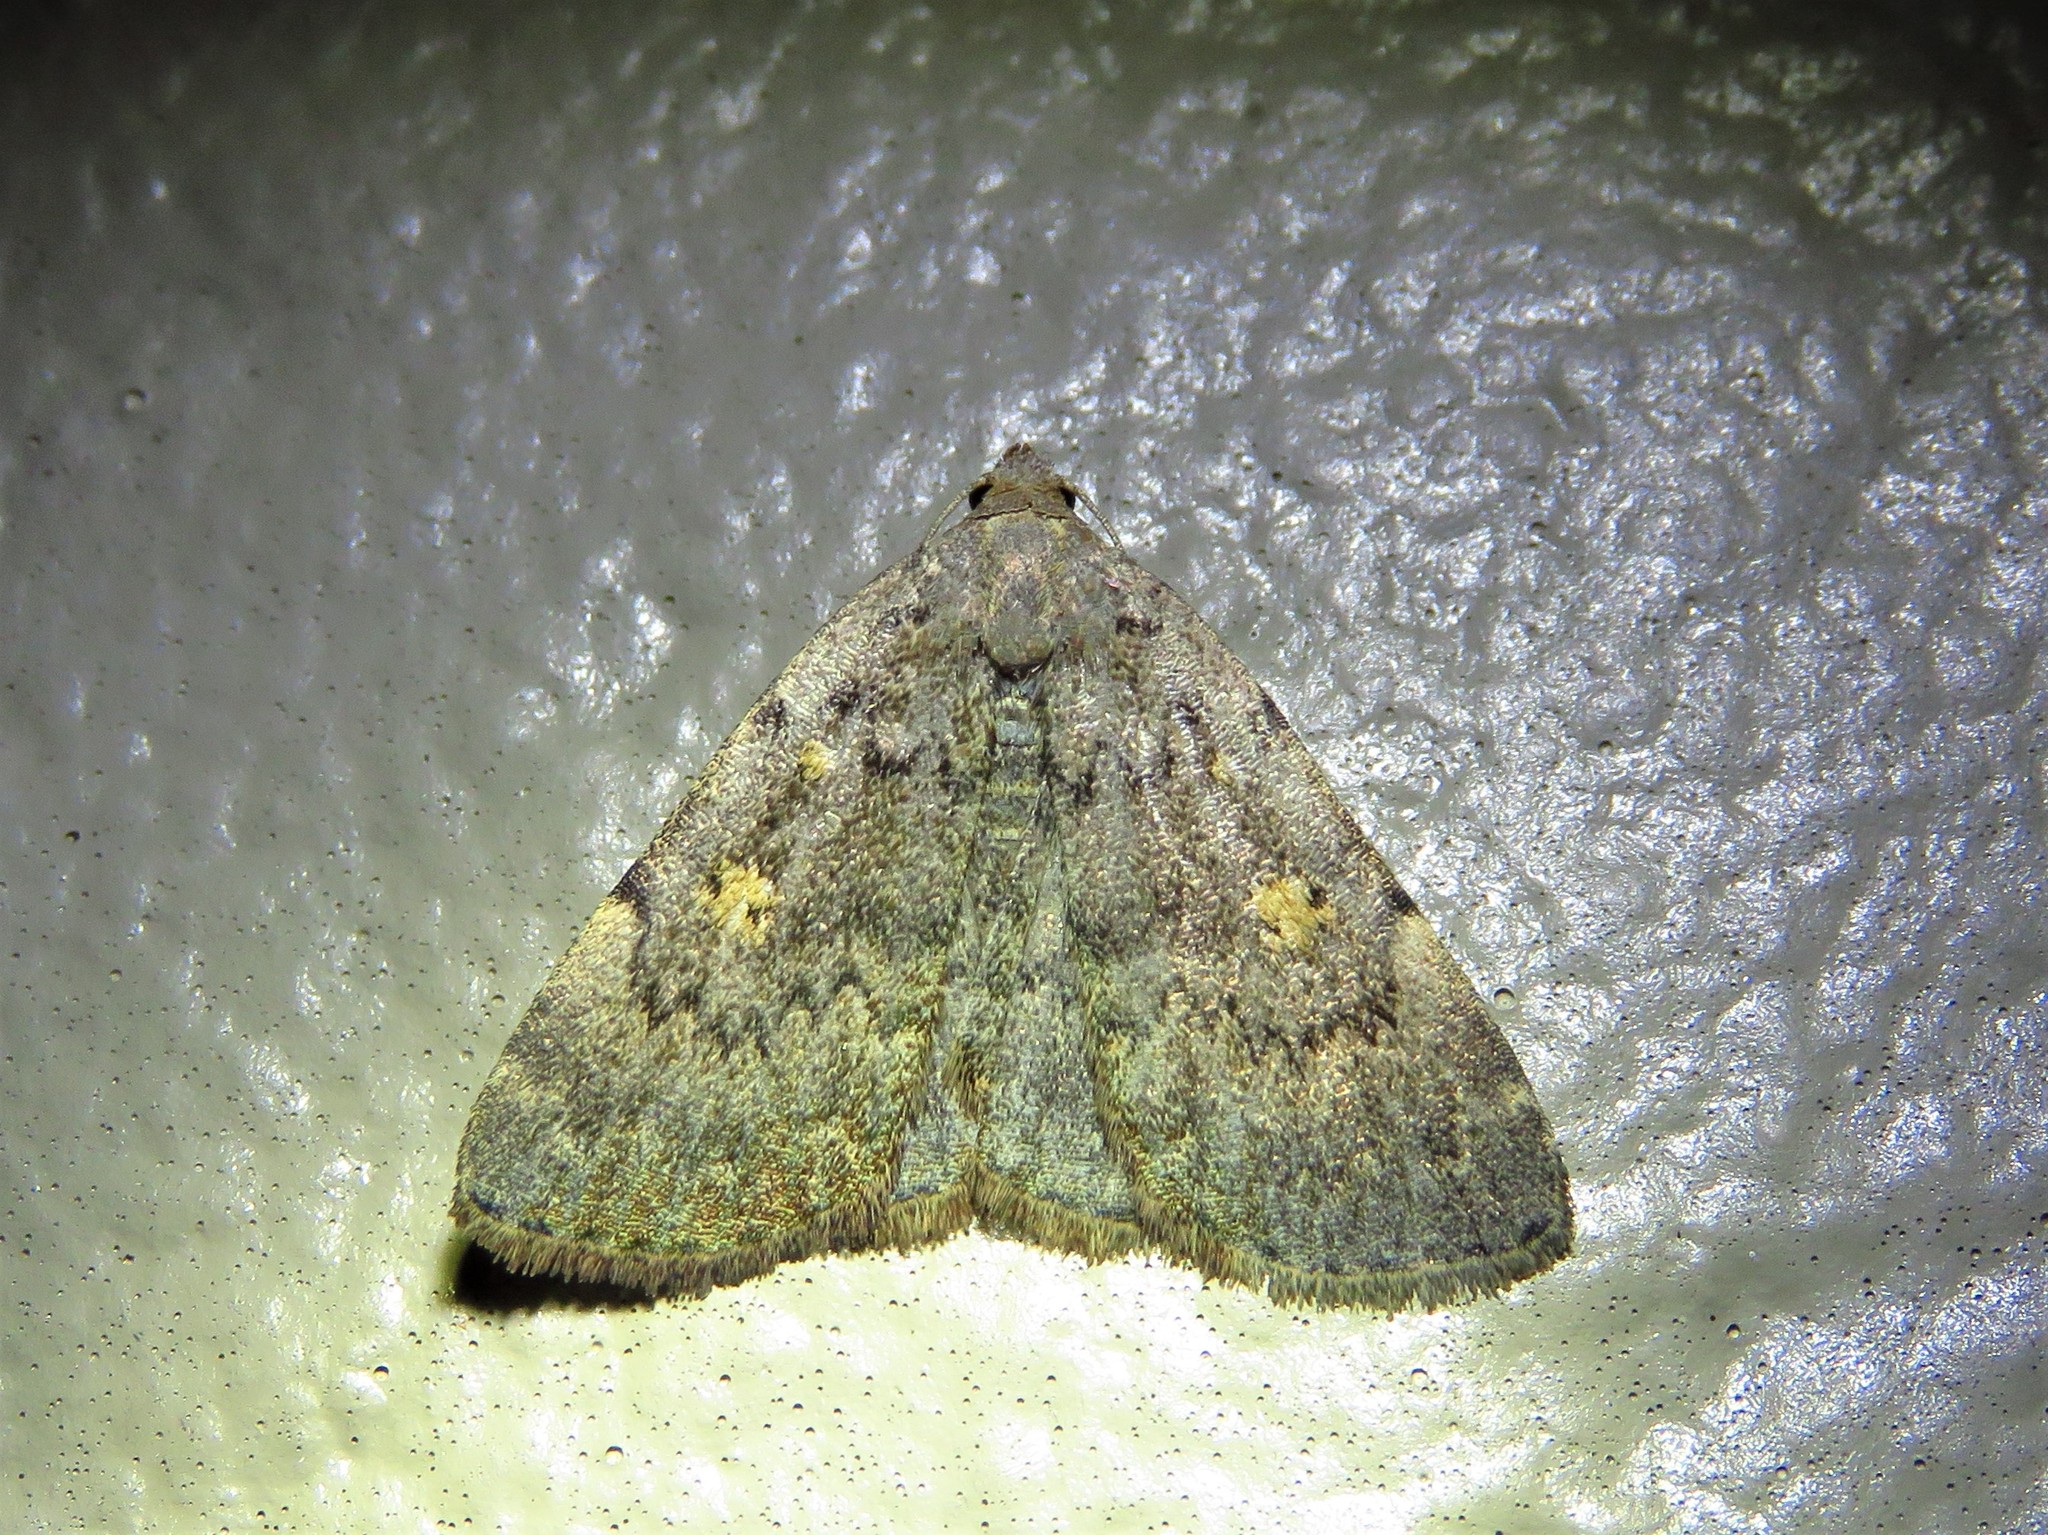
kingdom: Animalia
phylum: Arthropoda
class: Insecta
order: Lepidoptera
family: Erebidae
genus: Idia
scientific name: Idia aemula
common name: Common idia moth
